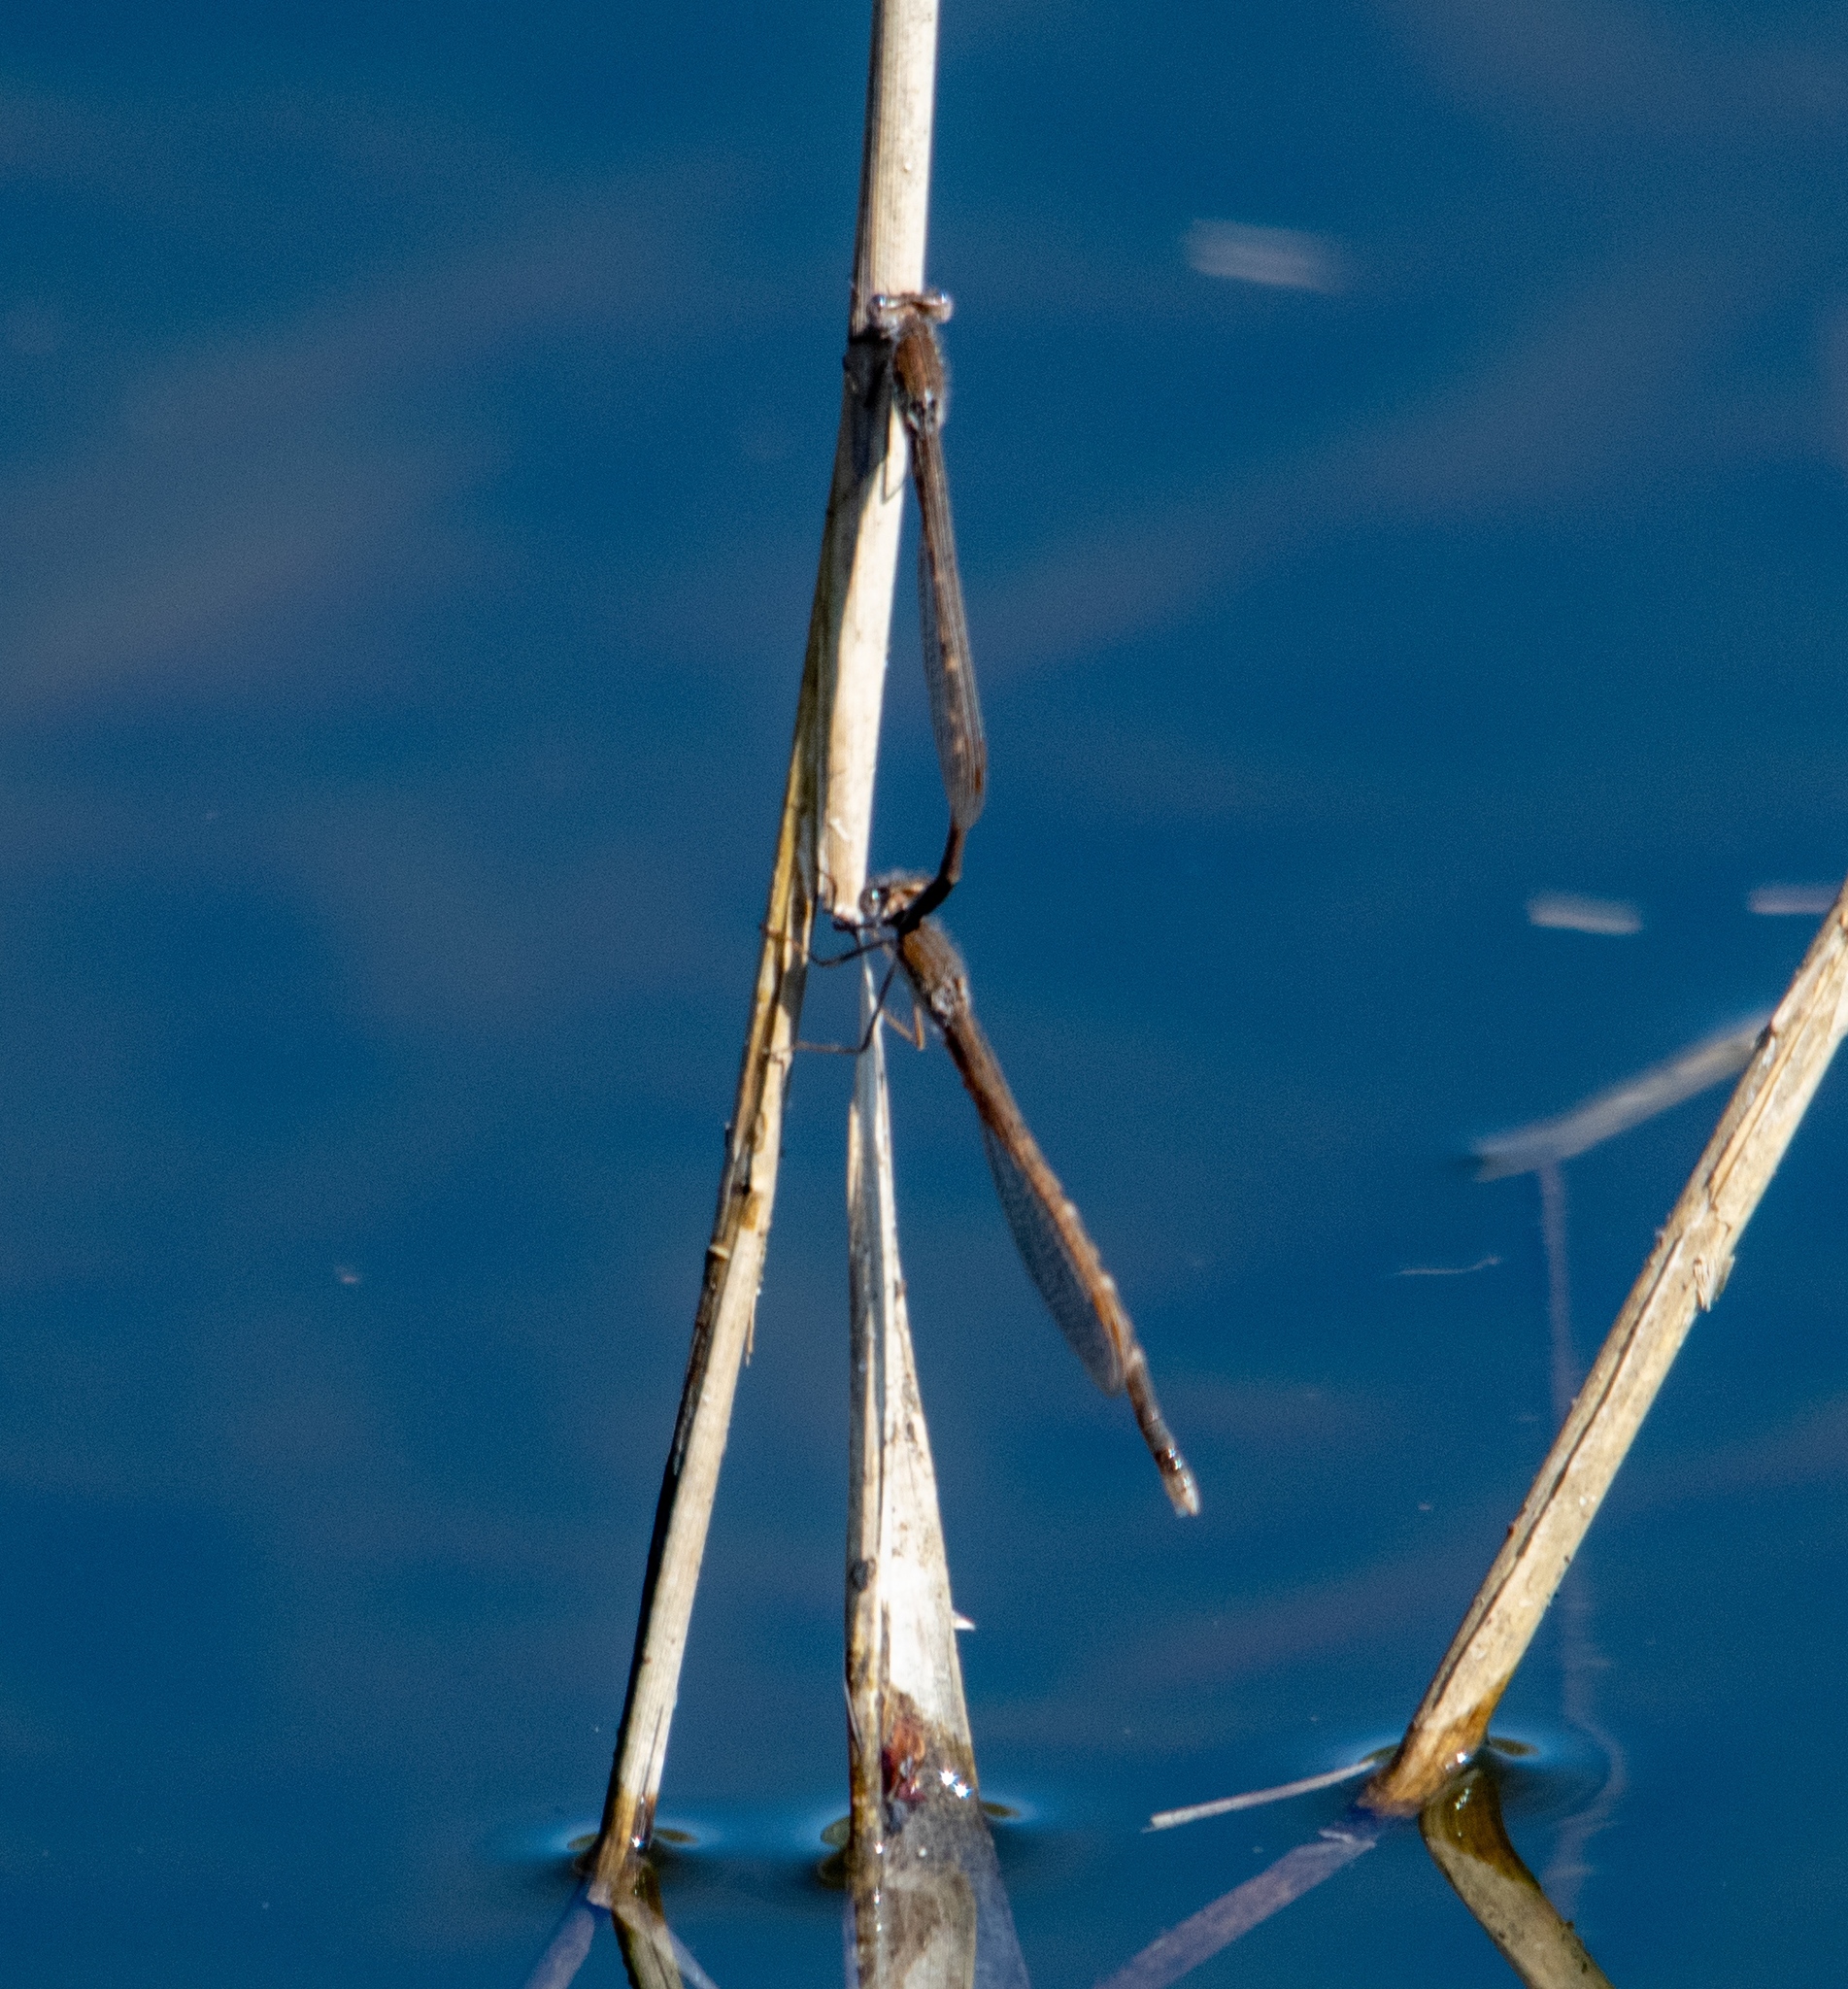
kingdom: Animalia
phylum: Arthropoda
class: Insecta
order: Odonata
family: Lestidae
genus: Sympecma
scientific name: Sympecma fusca
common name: Common winter damsel
